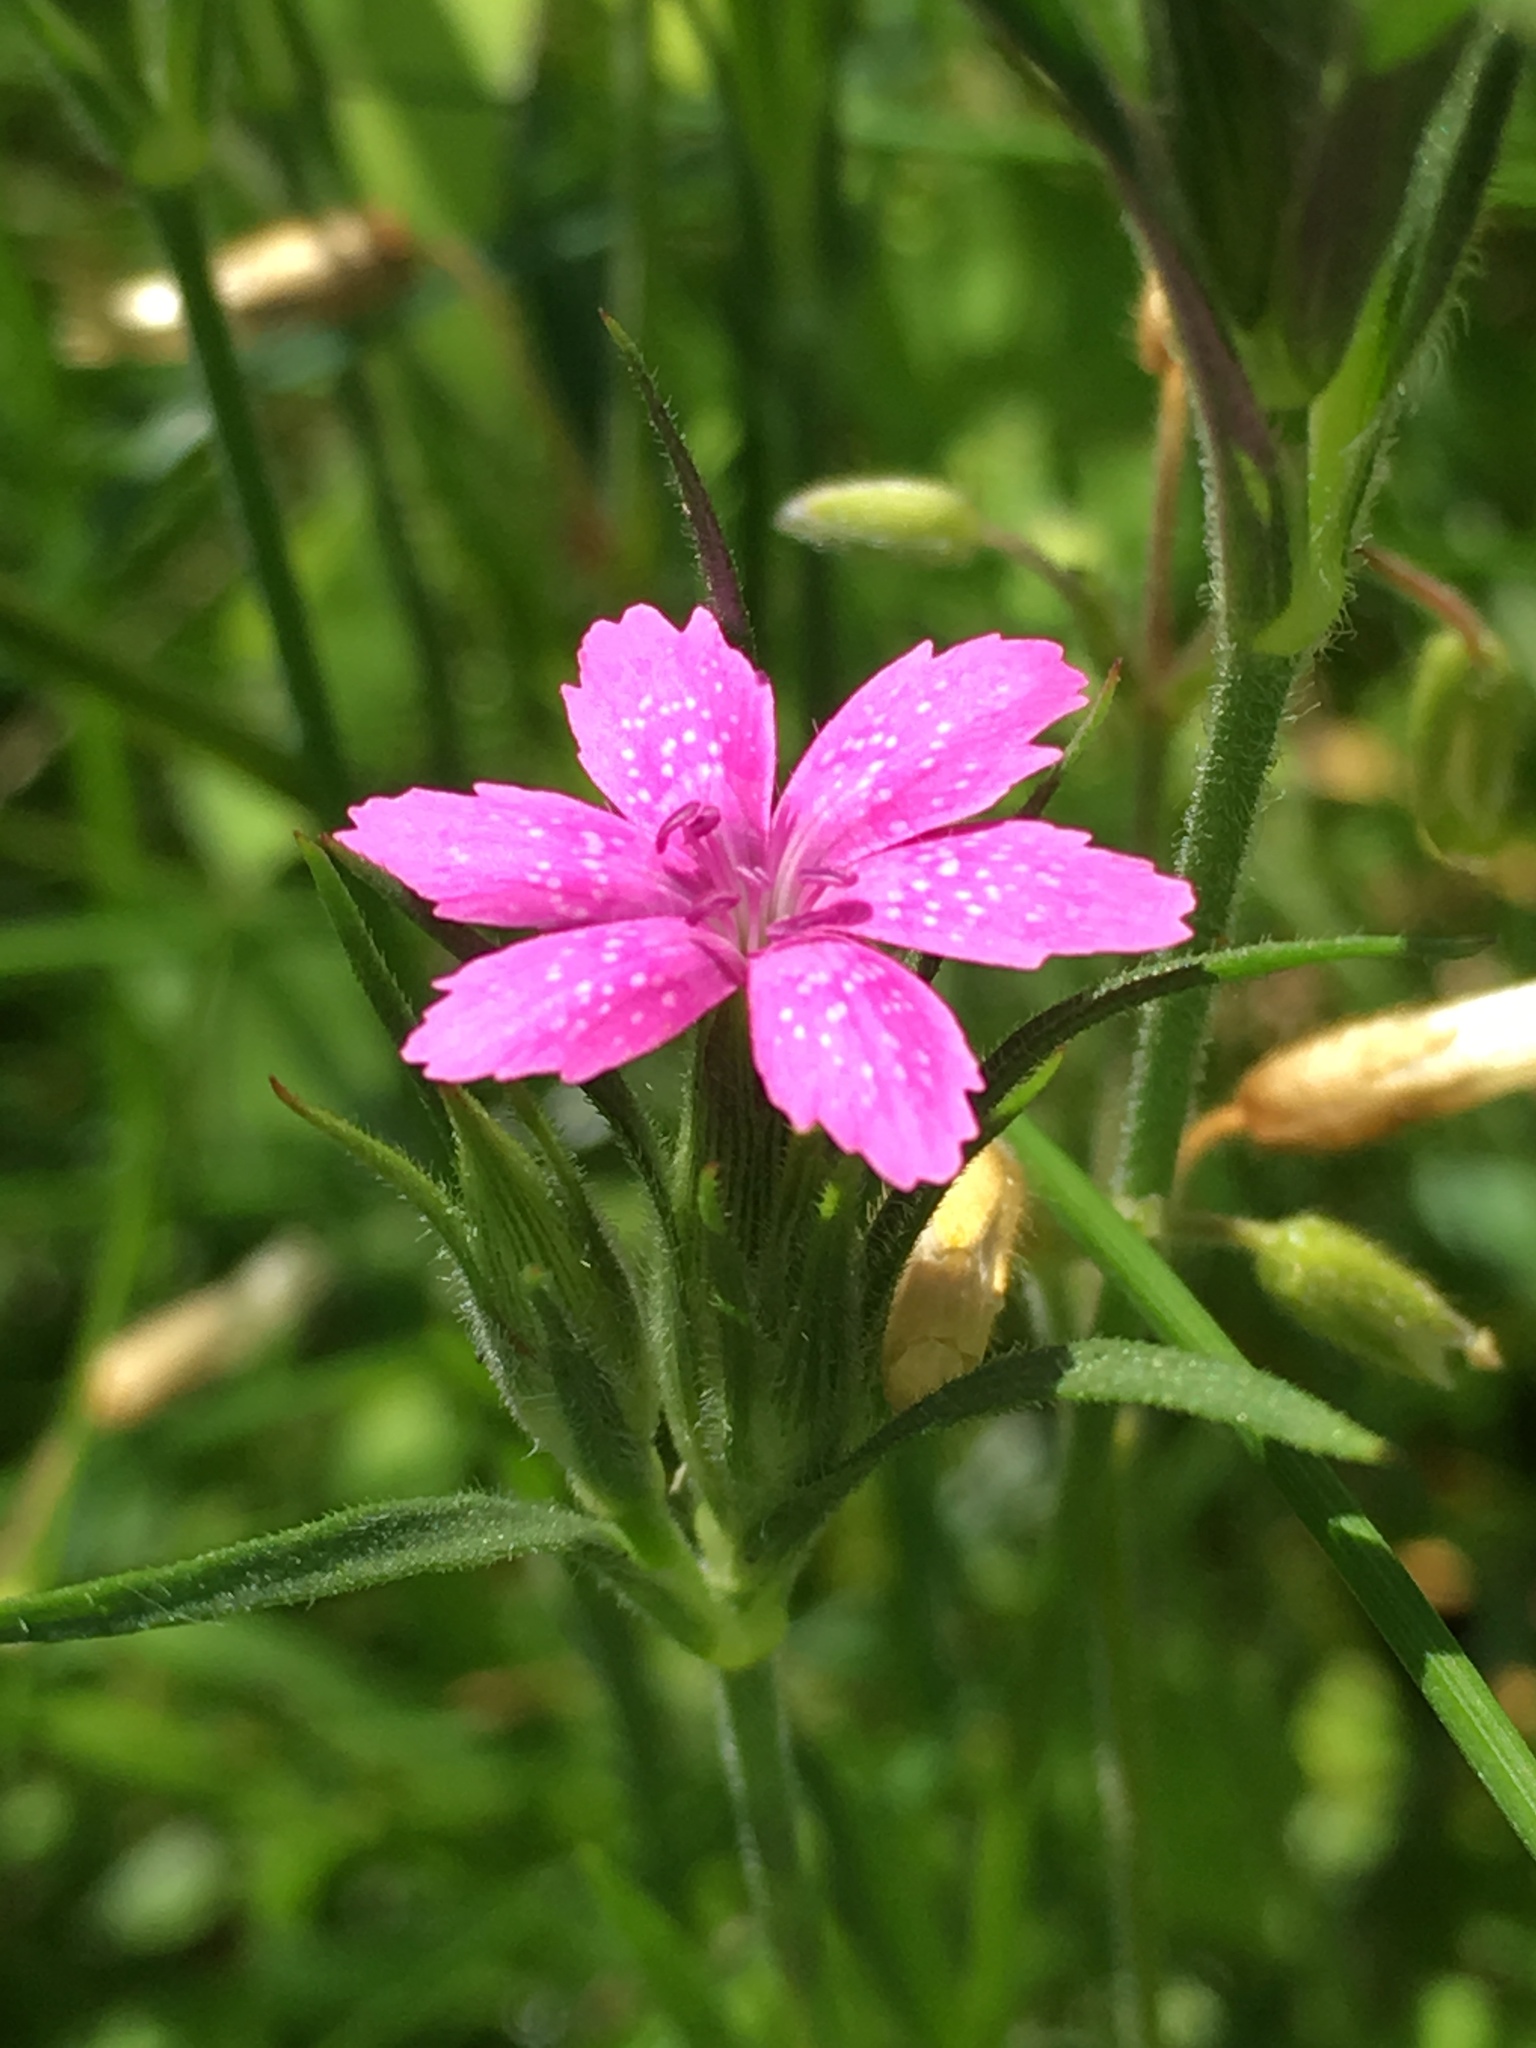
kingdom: Plantae
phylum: Tracheophyta
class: Magnoliopsida
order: Caryophyllales
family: Caryophyllaceae
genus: Dianthus
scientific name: Dianthus armeria
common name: Deptford pink
